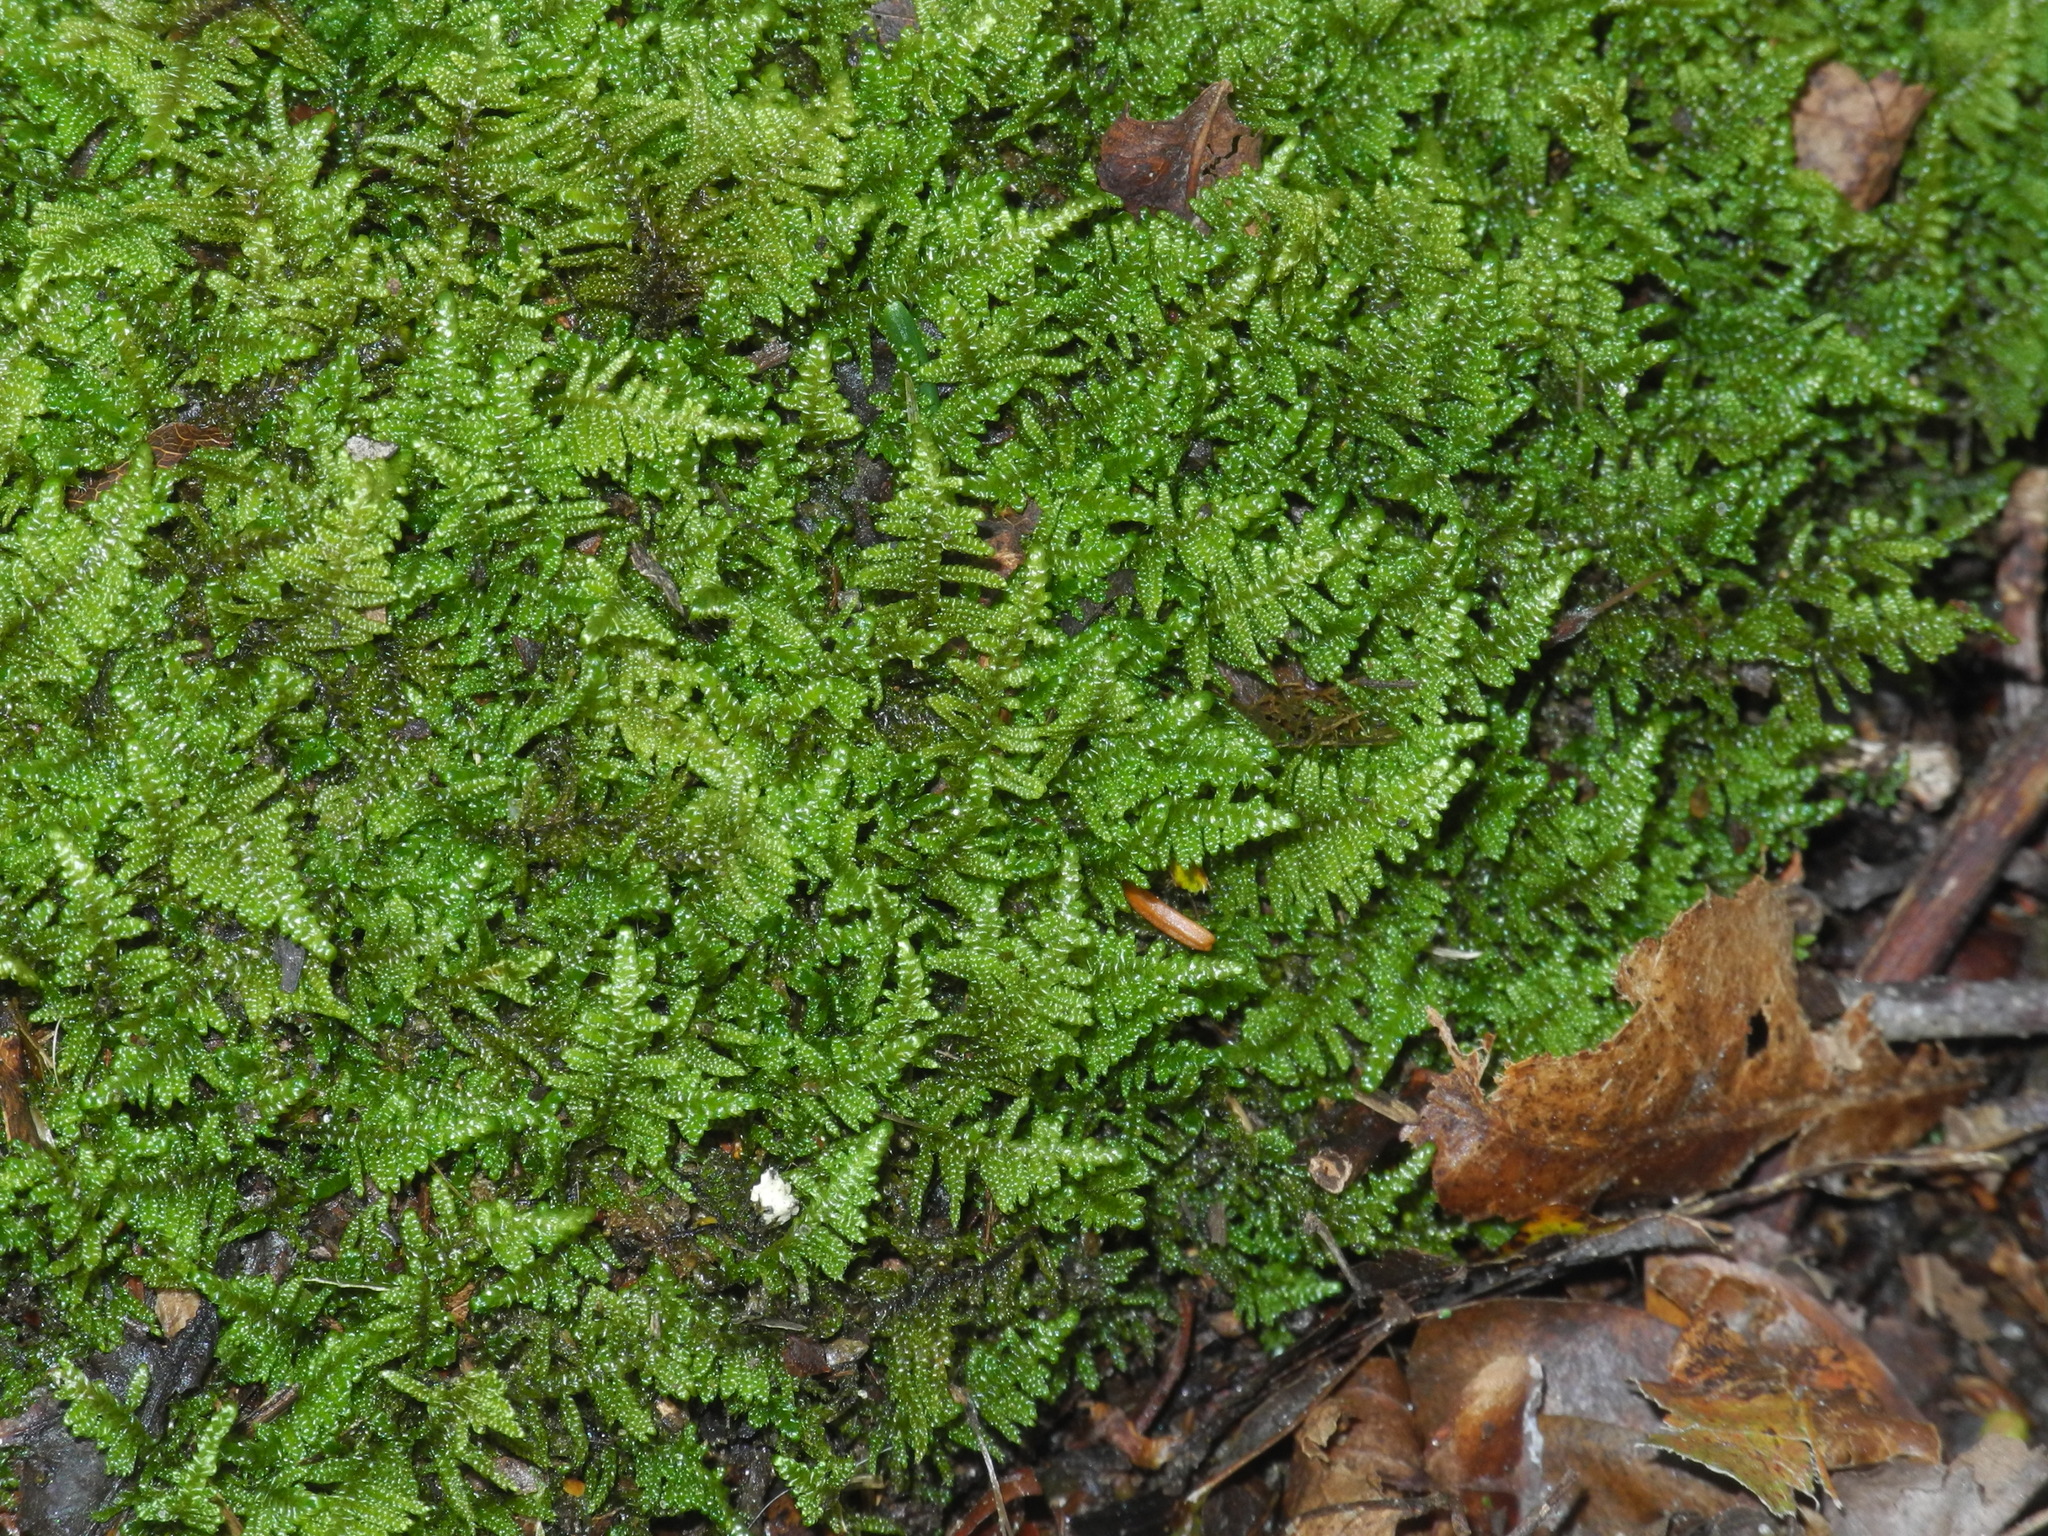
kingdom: Plantae
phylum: Bryophyta
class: Bryopsida
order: Hypnales
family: Callicladiaceae
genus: Callicladium
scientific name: Callicladium imponens
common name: Brocade moss
